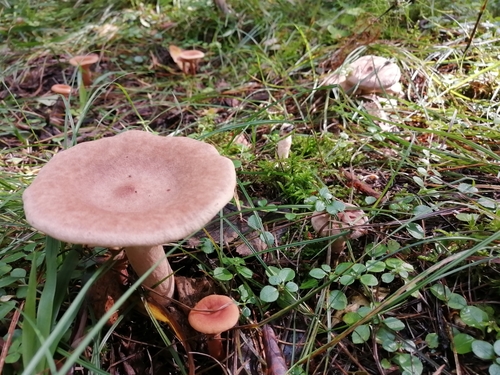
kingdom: Fungi
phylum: Basidiomycota
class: Agaricomycetes
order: Russulales
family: Russulaceae
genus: Lactarius
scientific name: Lactarius helvus
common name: Fenugreek milkcap
